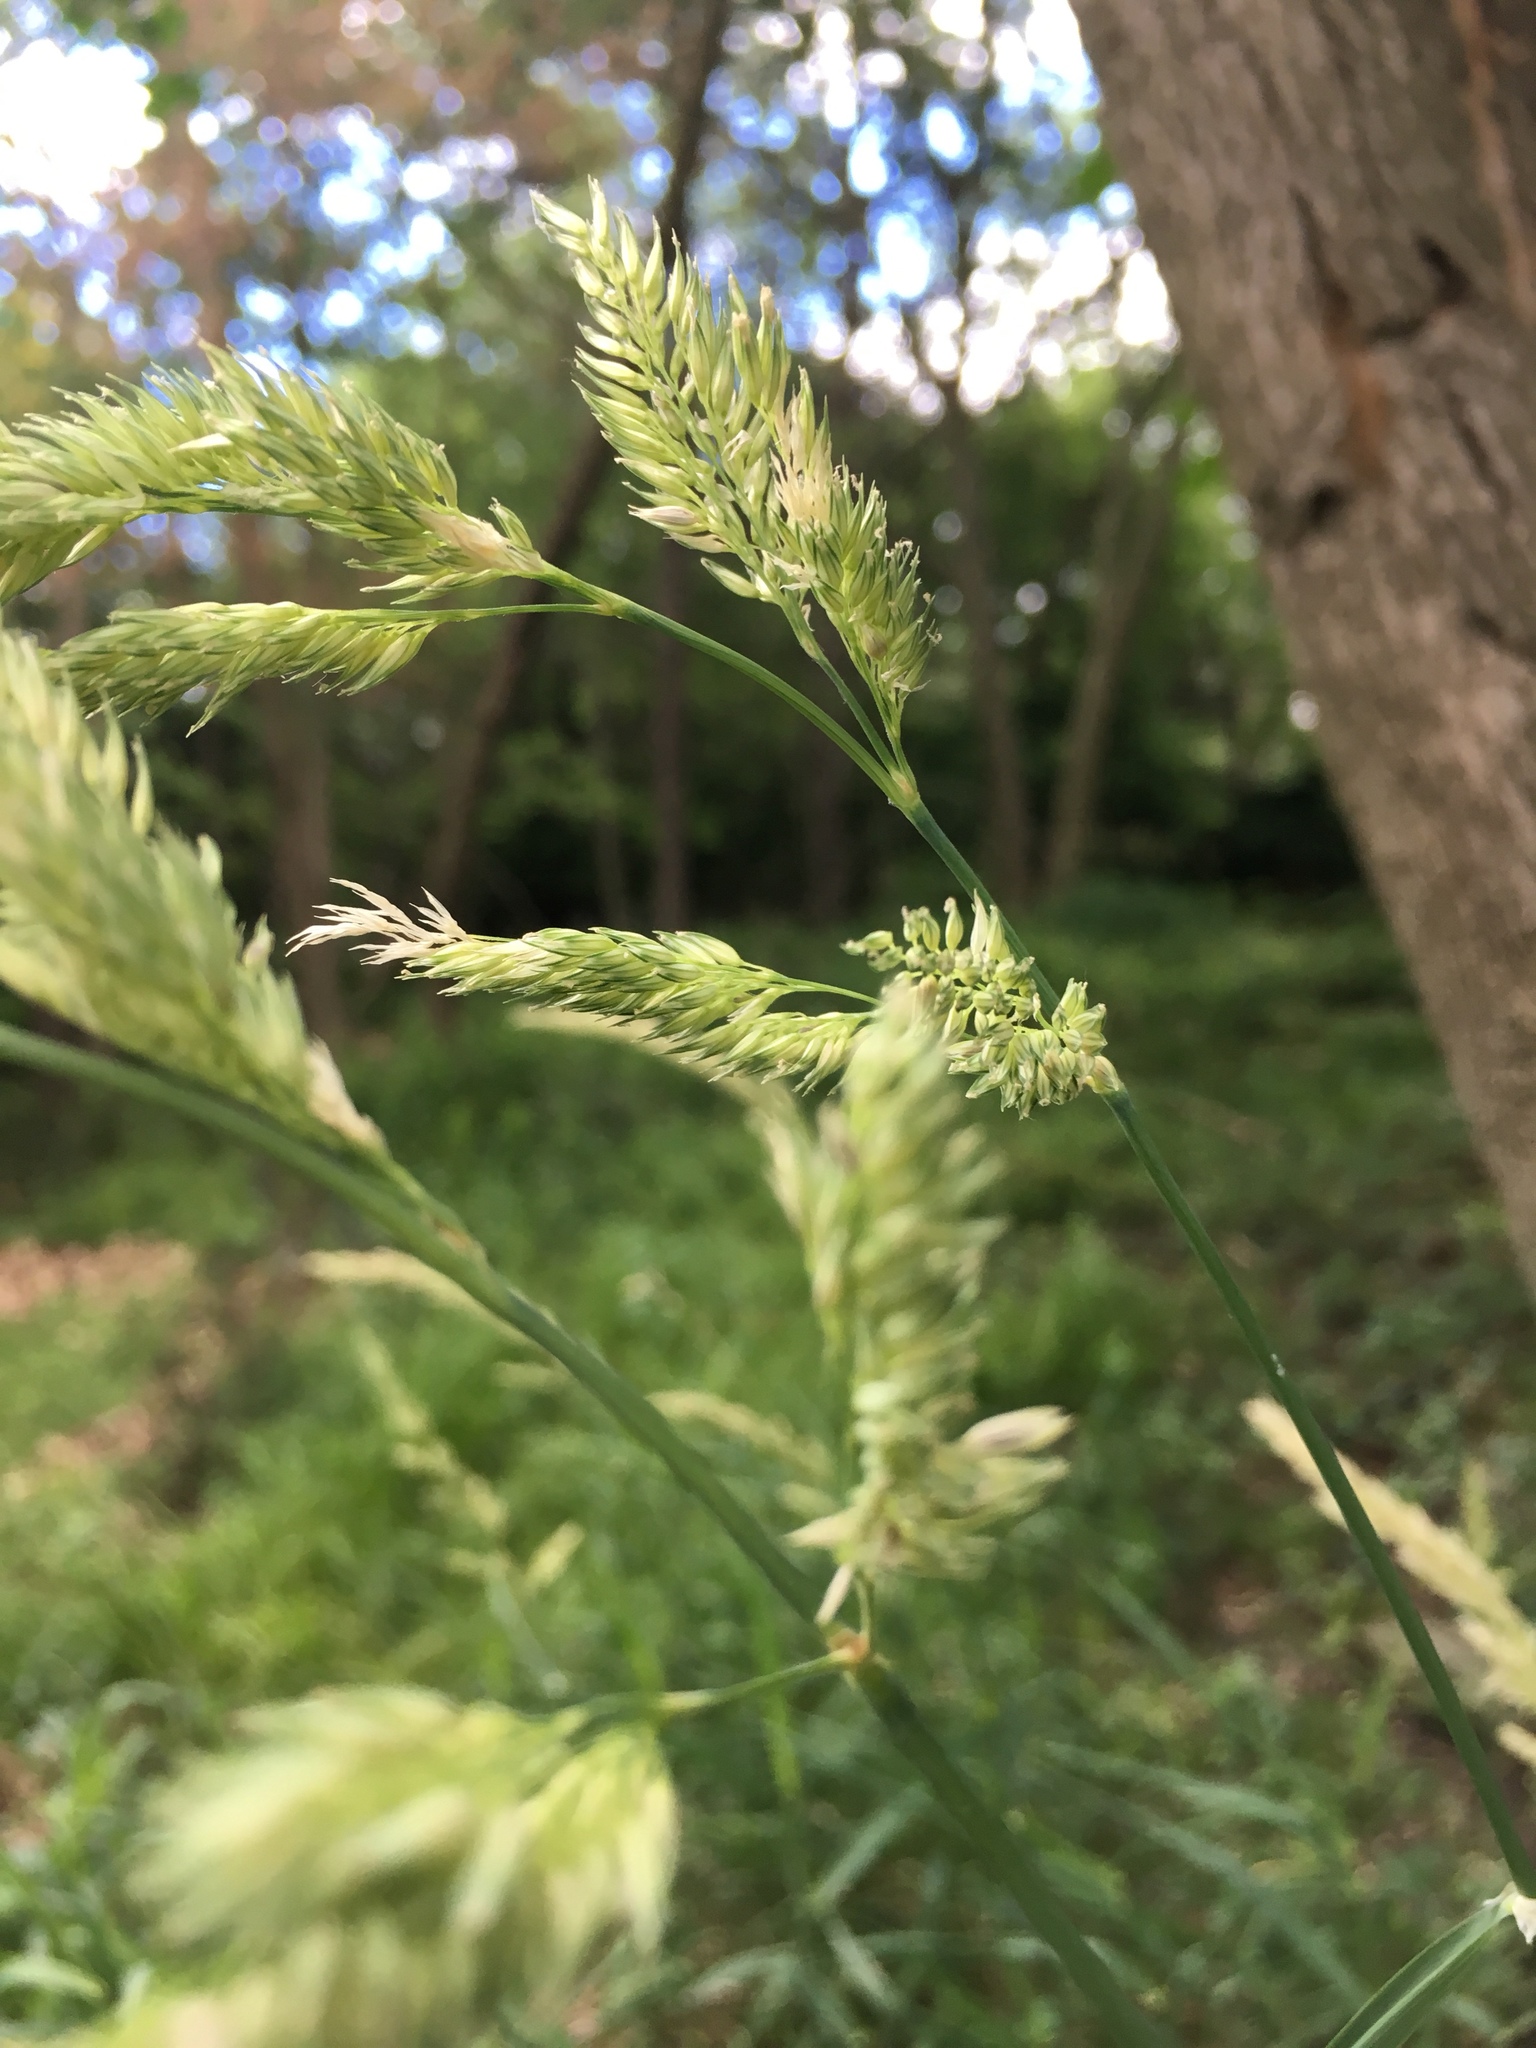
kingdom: Plantae
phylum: Tracheophyta
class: Liliopsida
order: Poales
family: Poaceae
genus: Dactylis
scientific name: Dactylis glomerata
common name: Orchardgrass
